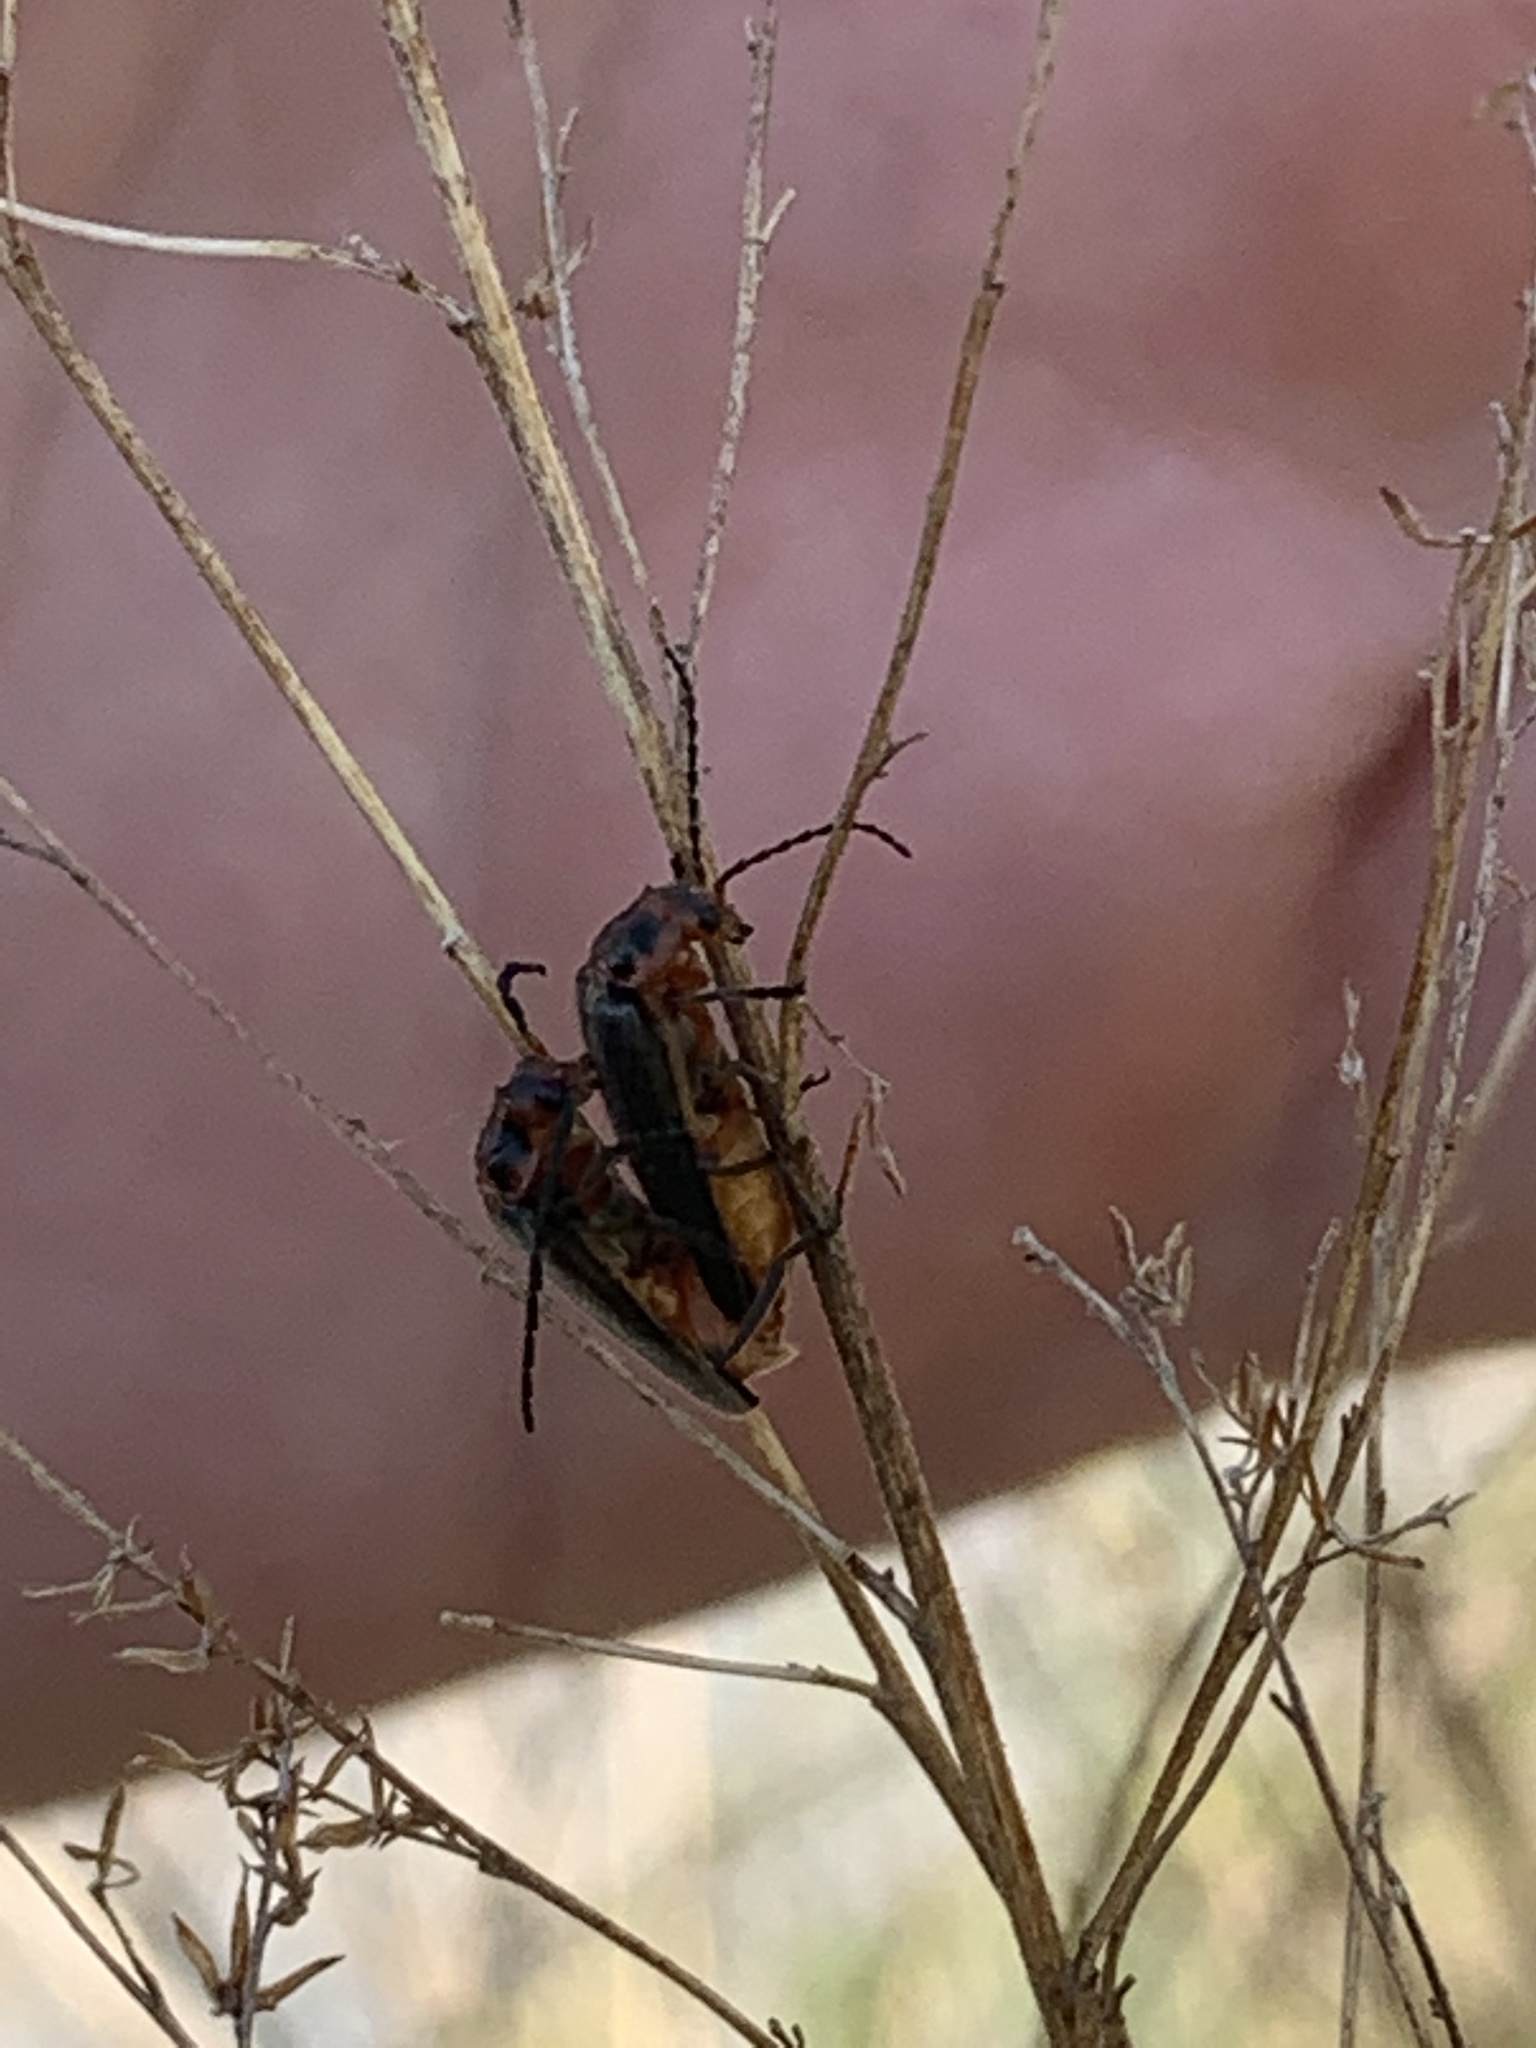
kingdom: Animalia
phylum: Arthropoda
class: Insecta
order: Coleoptera
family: Cantharidae
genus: Atalantycha
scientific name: Atalantycha bilineata
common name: Two-lined leatherwing
